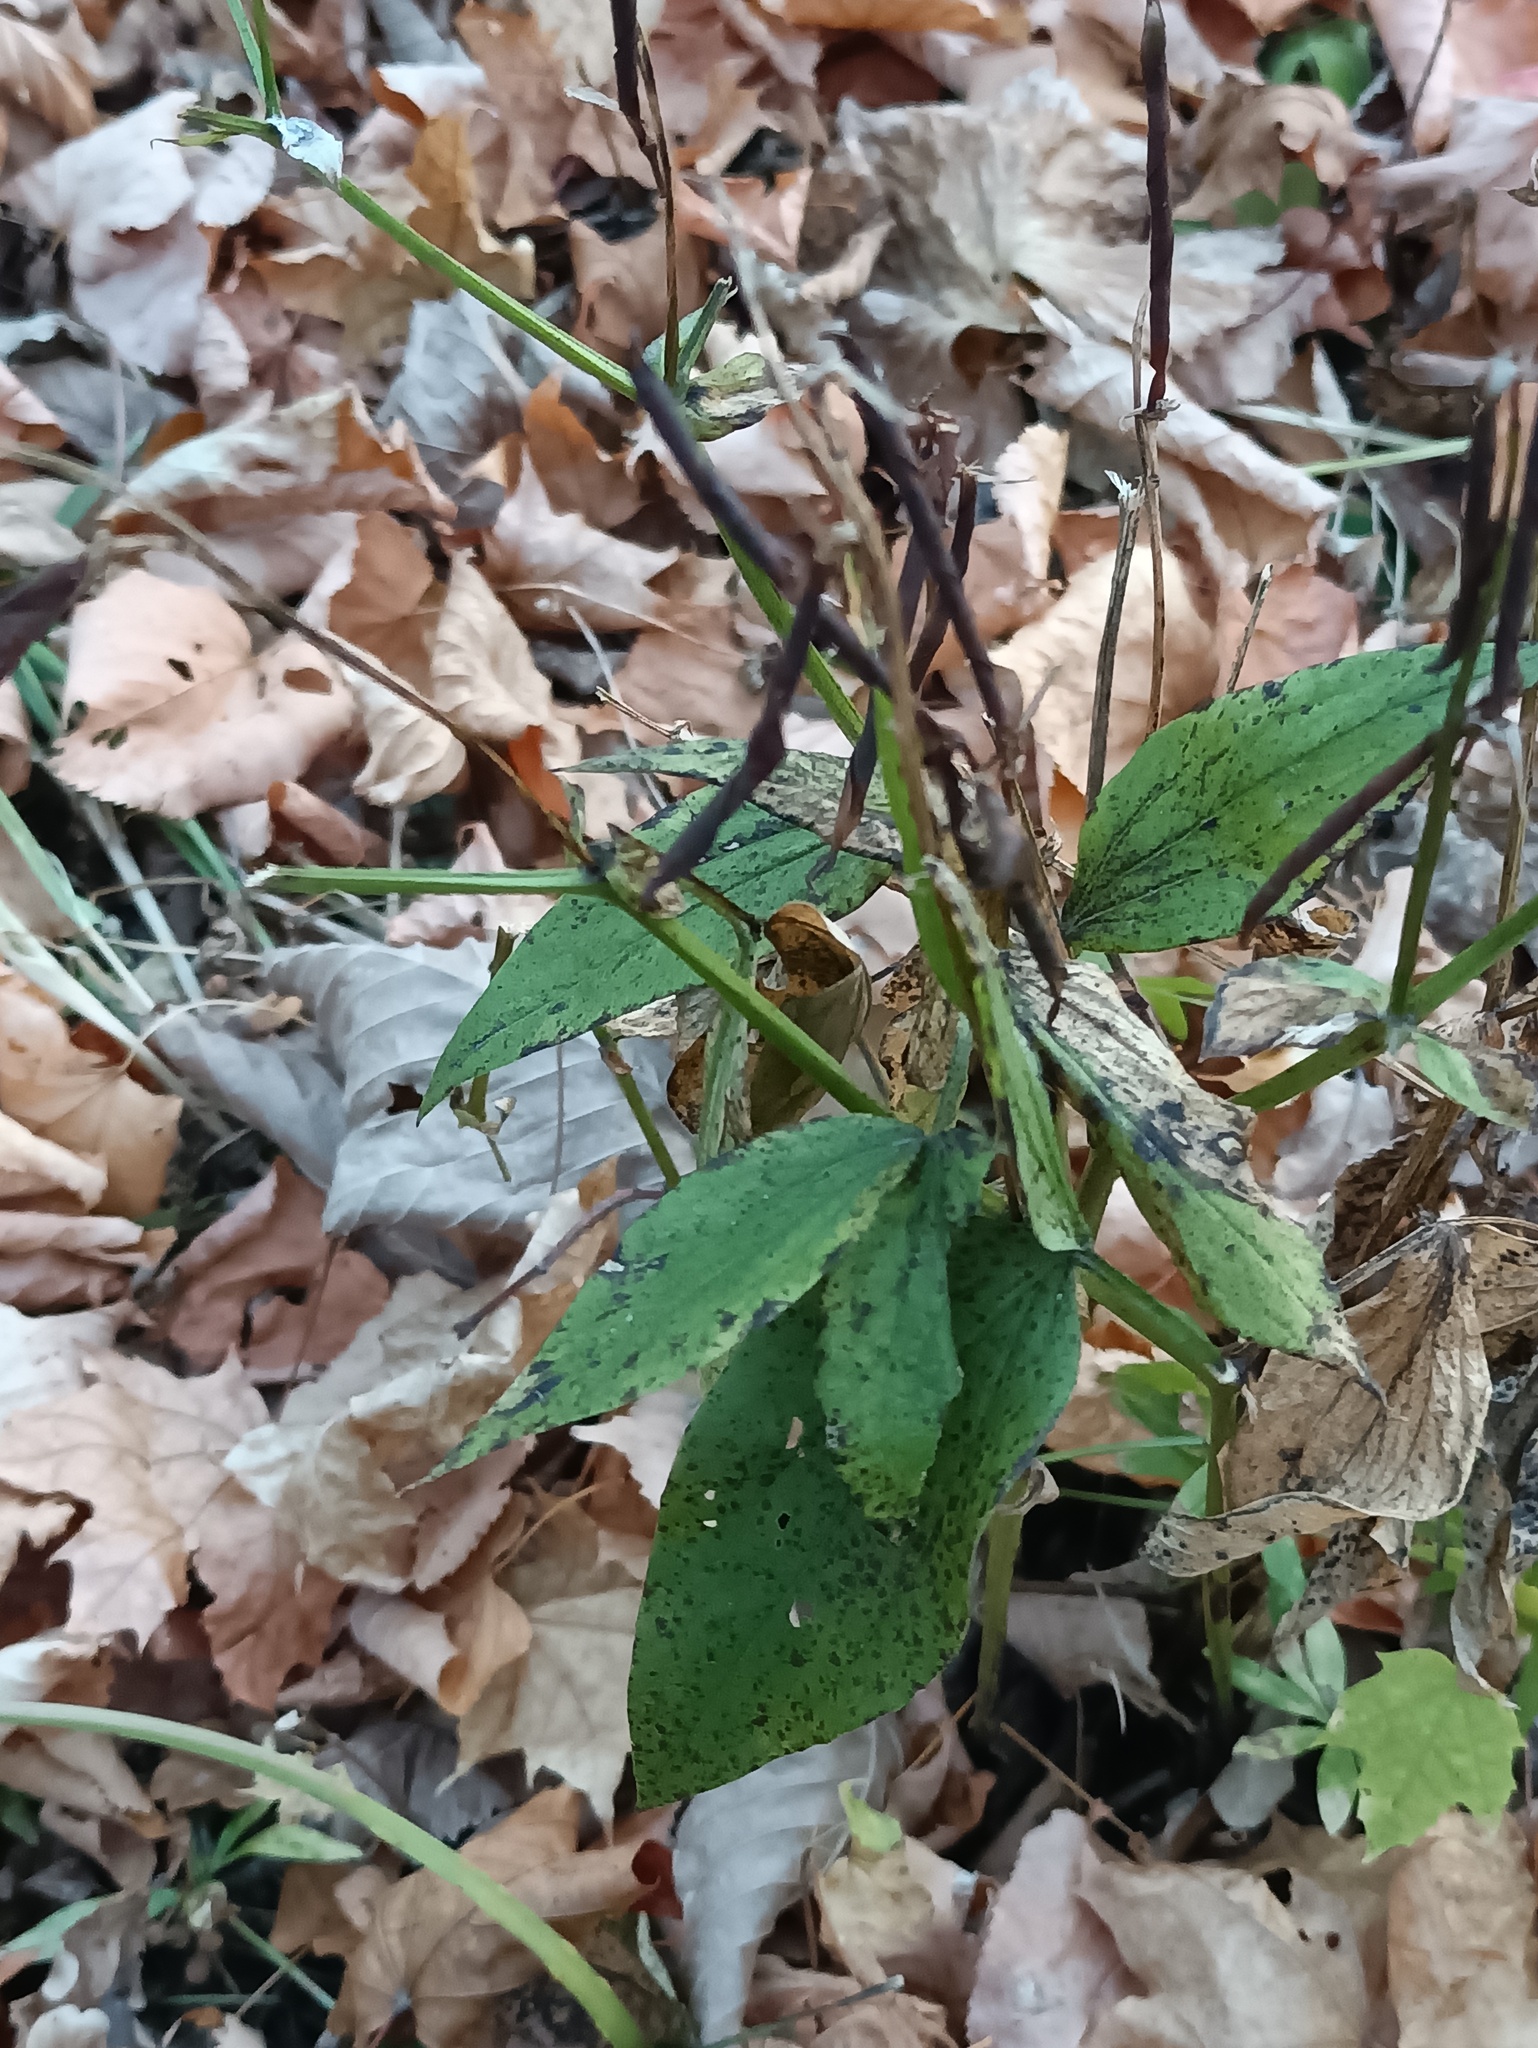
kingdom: Plantae
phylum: Tracheophyta
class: Magnoliopsida
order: Fabales
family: Fabaceae
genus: Lathyrus
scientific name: Lathyrus vernus
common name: Spring pea
